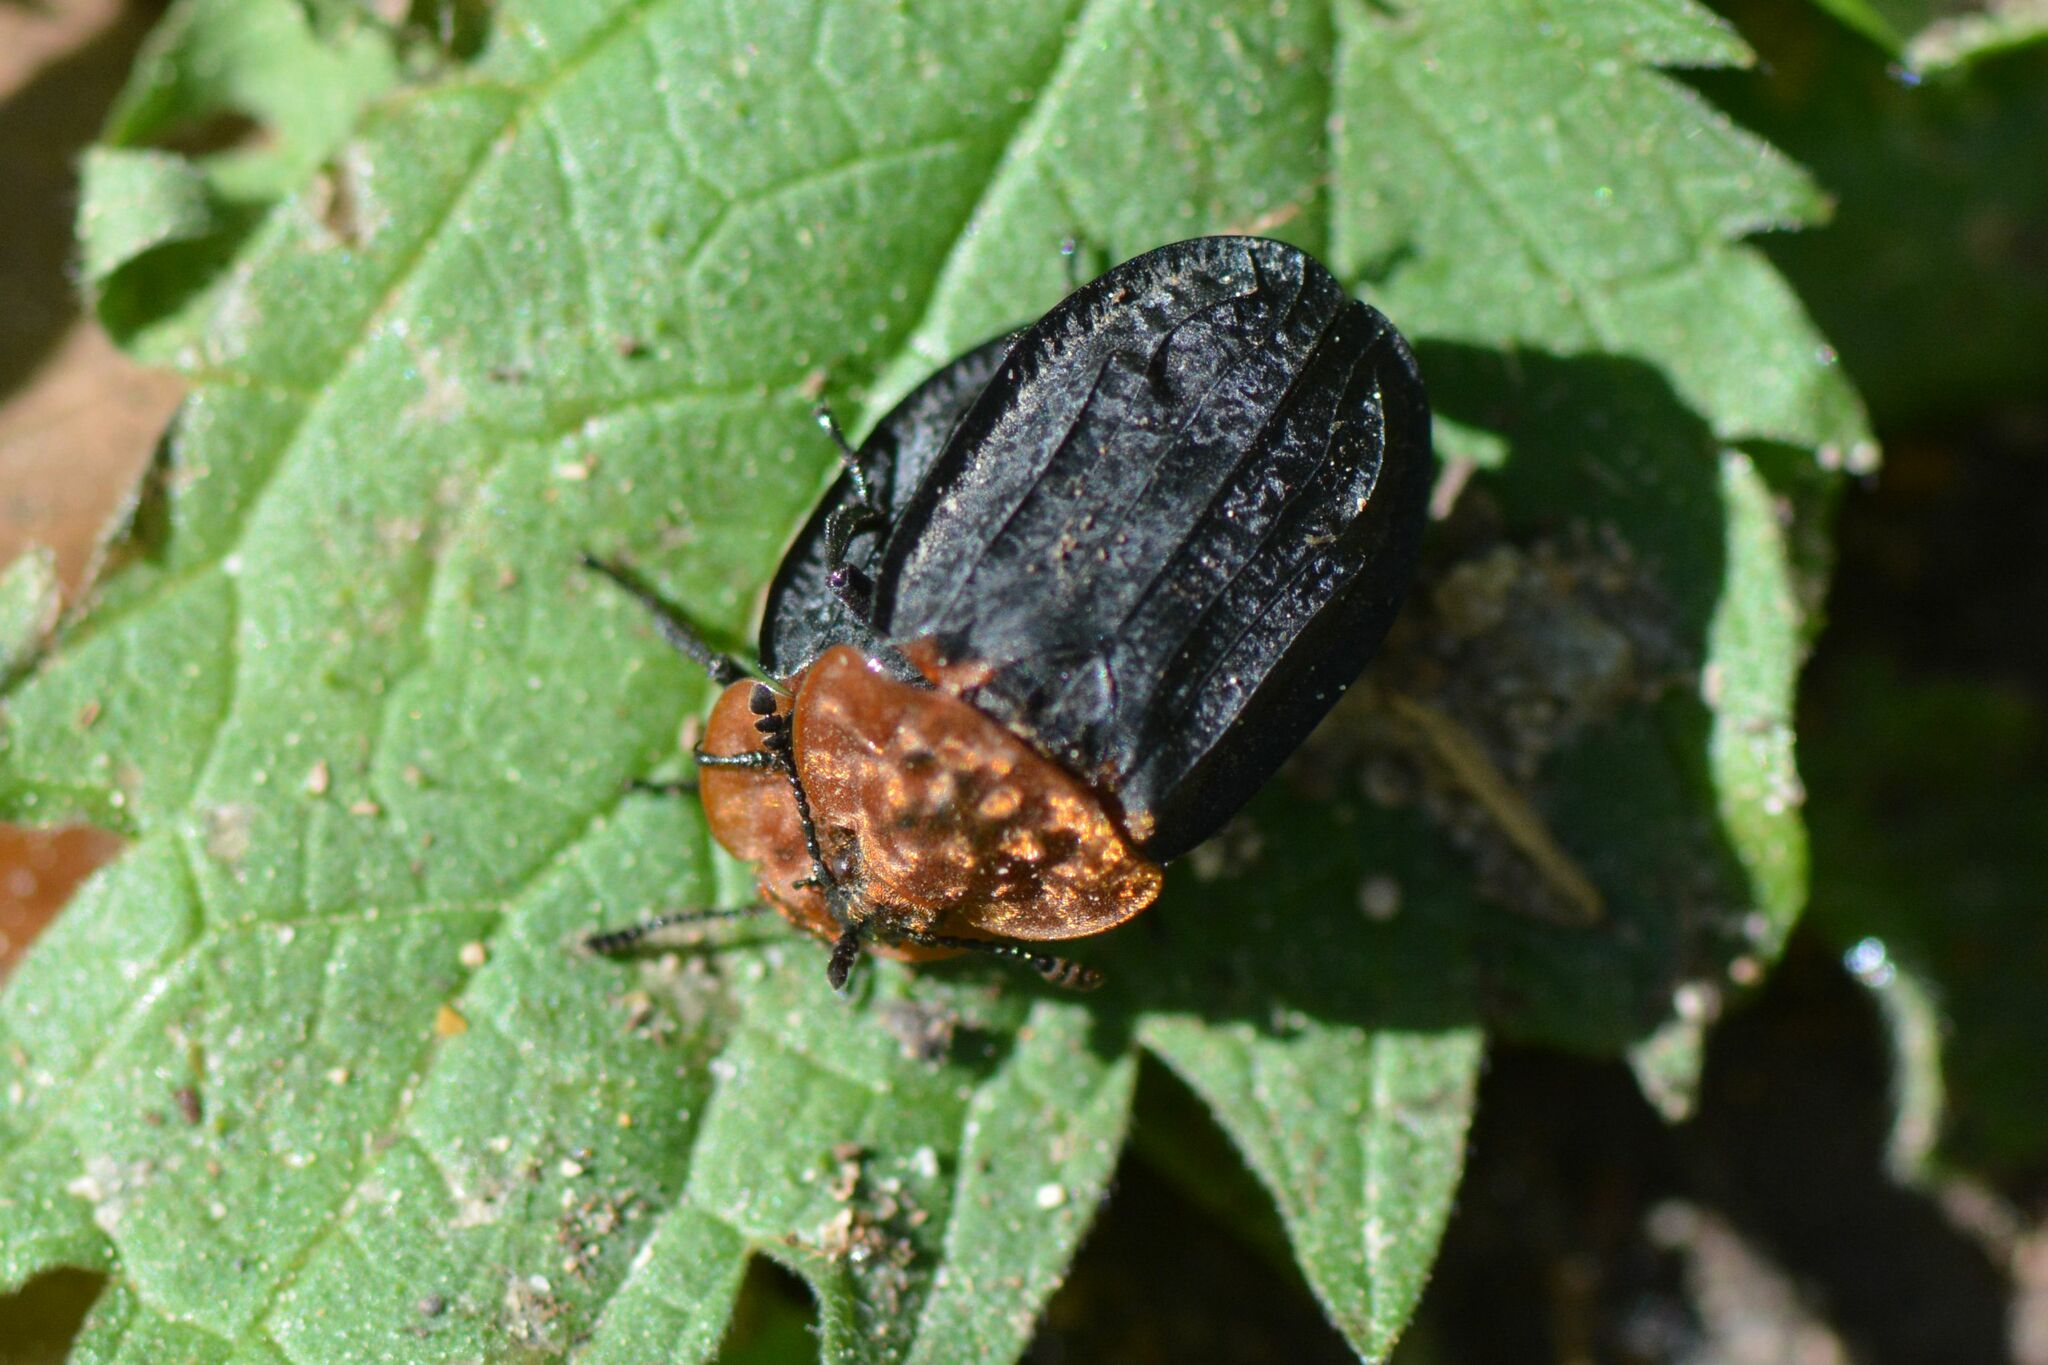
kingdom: Animalia
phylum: Arthropoda
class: Insecta
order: Coleoptera
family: Staphylinidae
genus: Oiceoptoma
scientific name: Oiceoptoma thoracicum
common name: Red-breasted carrion beetle
